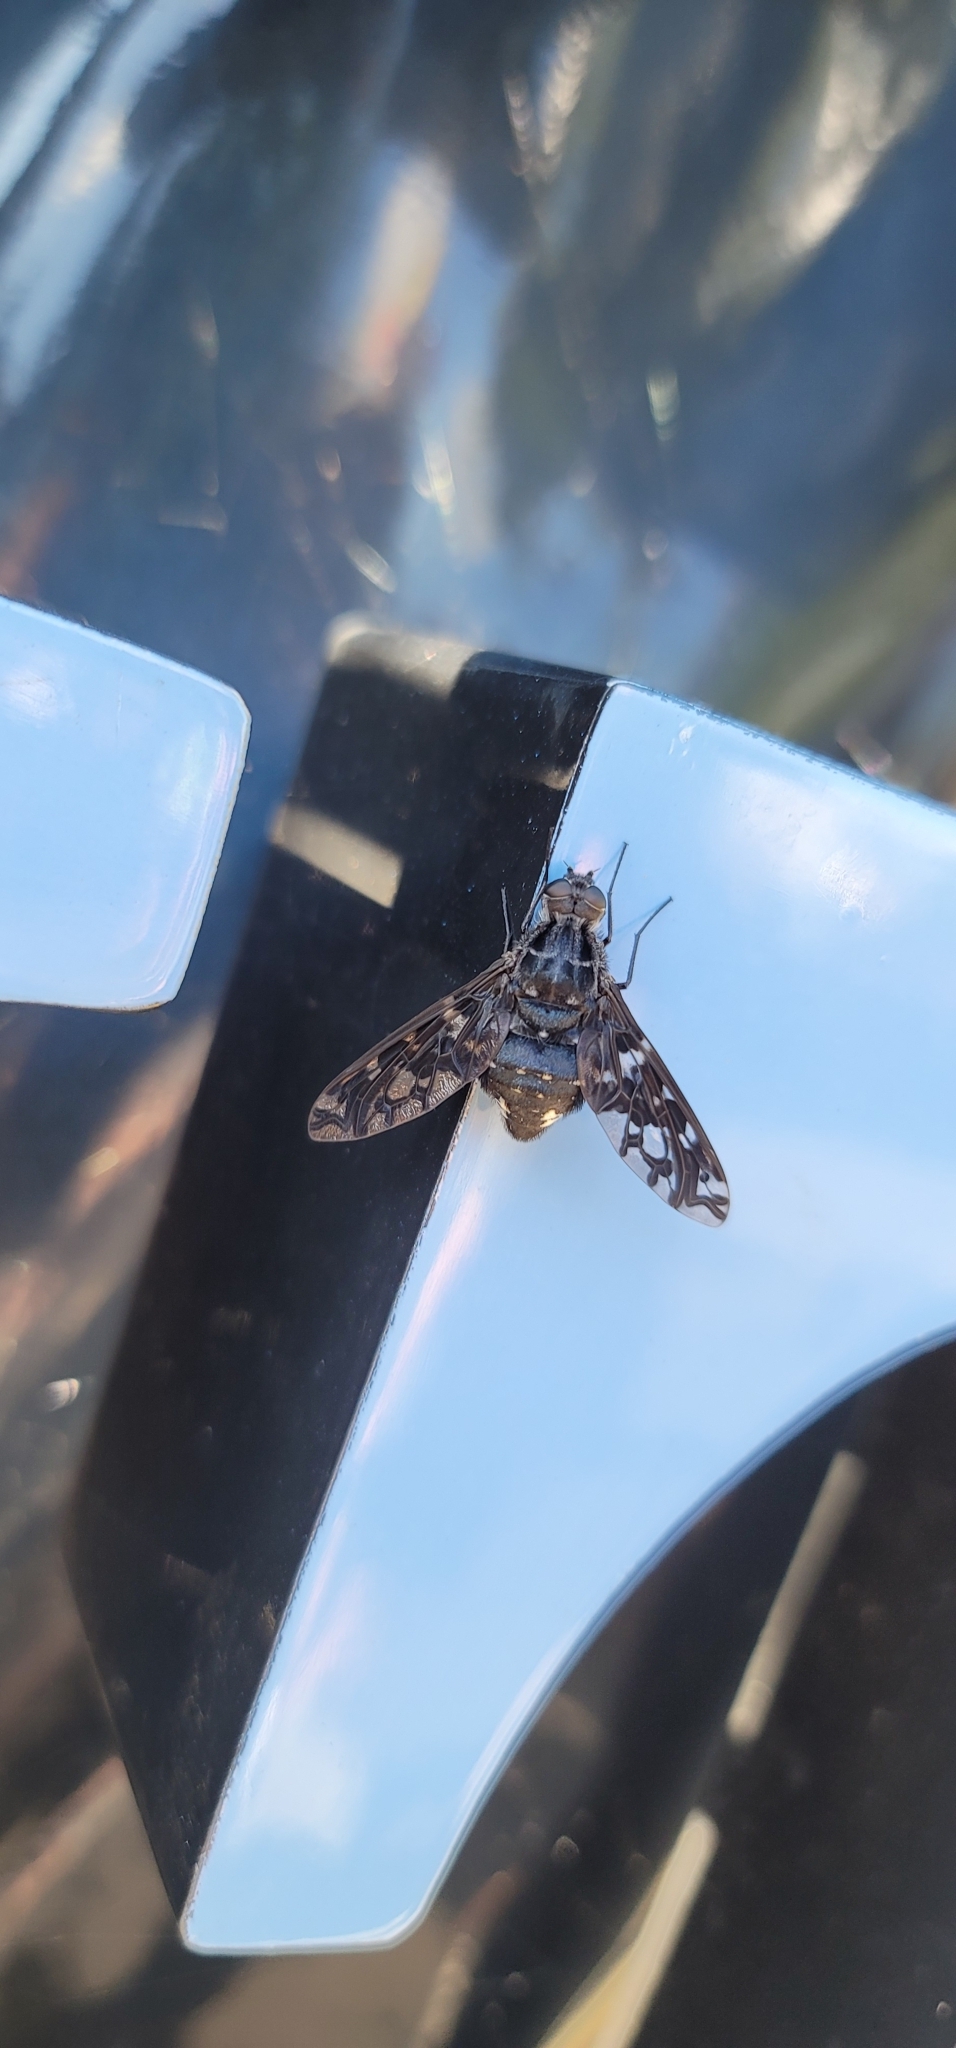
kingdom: Animalia
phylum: Arthropoda
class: Insecta
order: Diptera
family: Bombyliidae
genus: Xenox
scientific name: Xenox tigrinus
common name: Tiger bee fly
